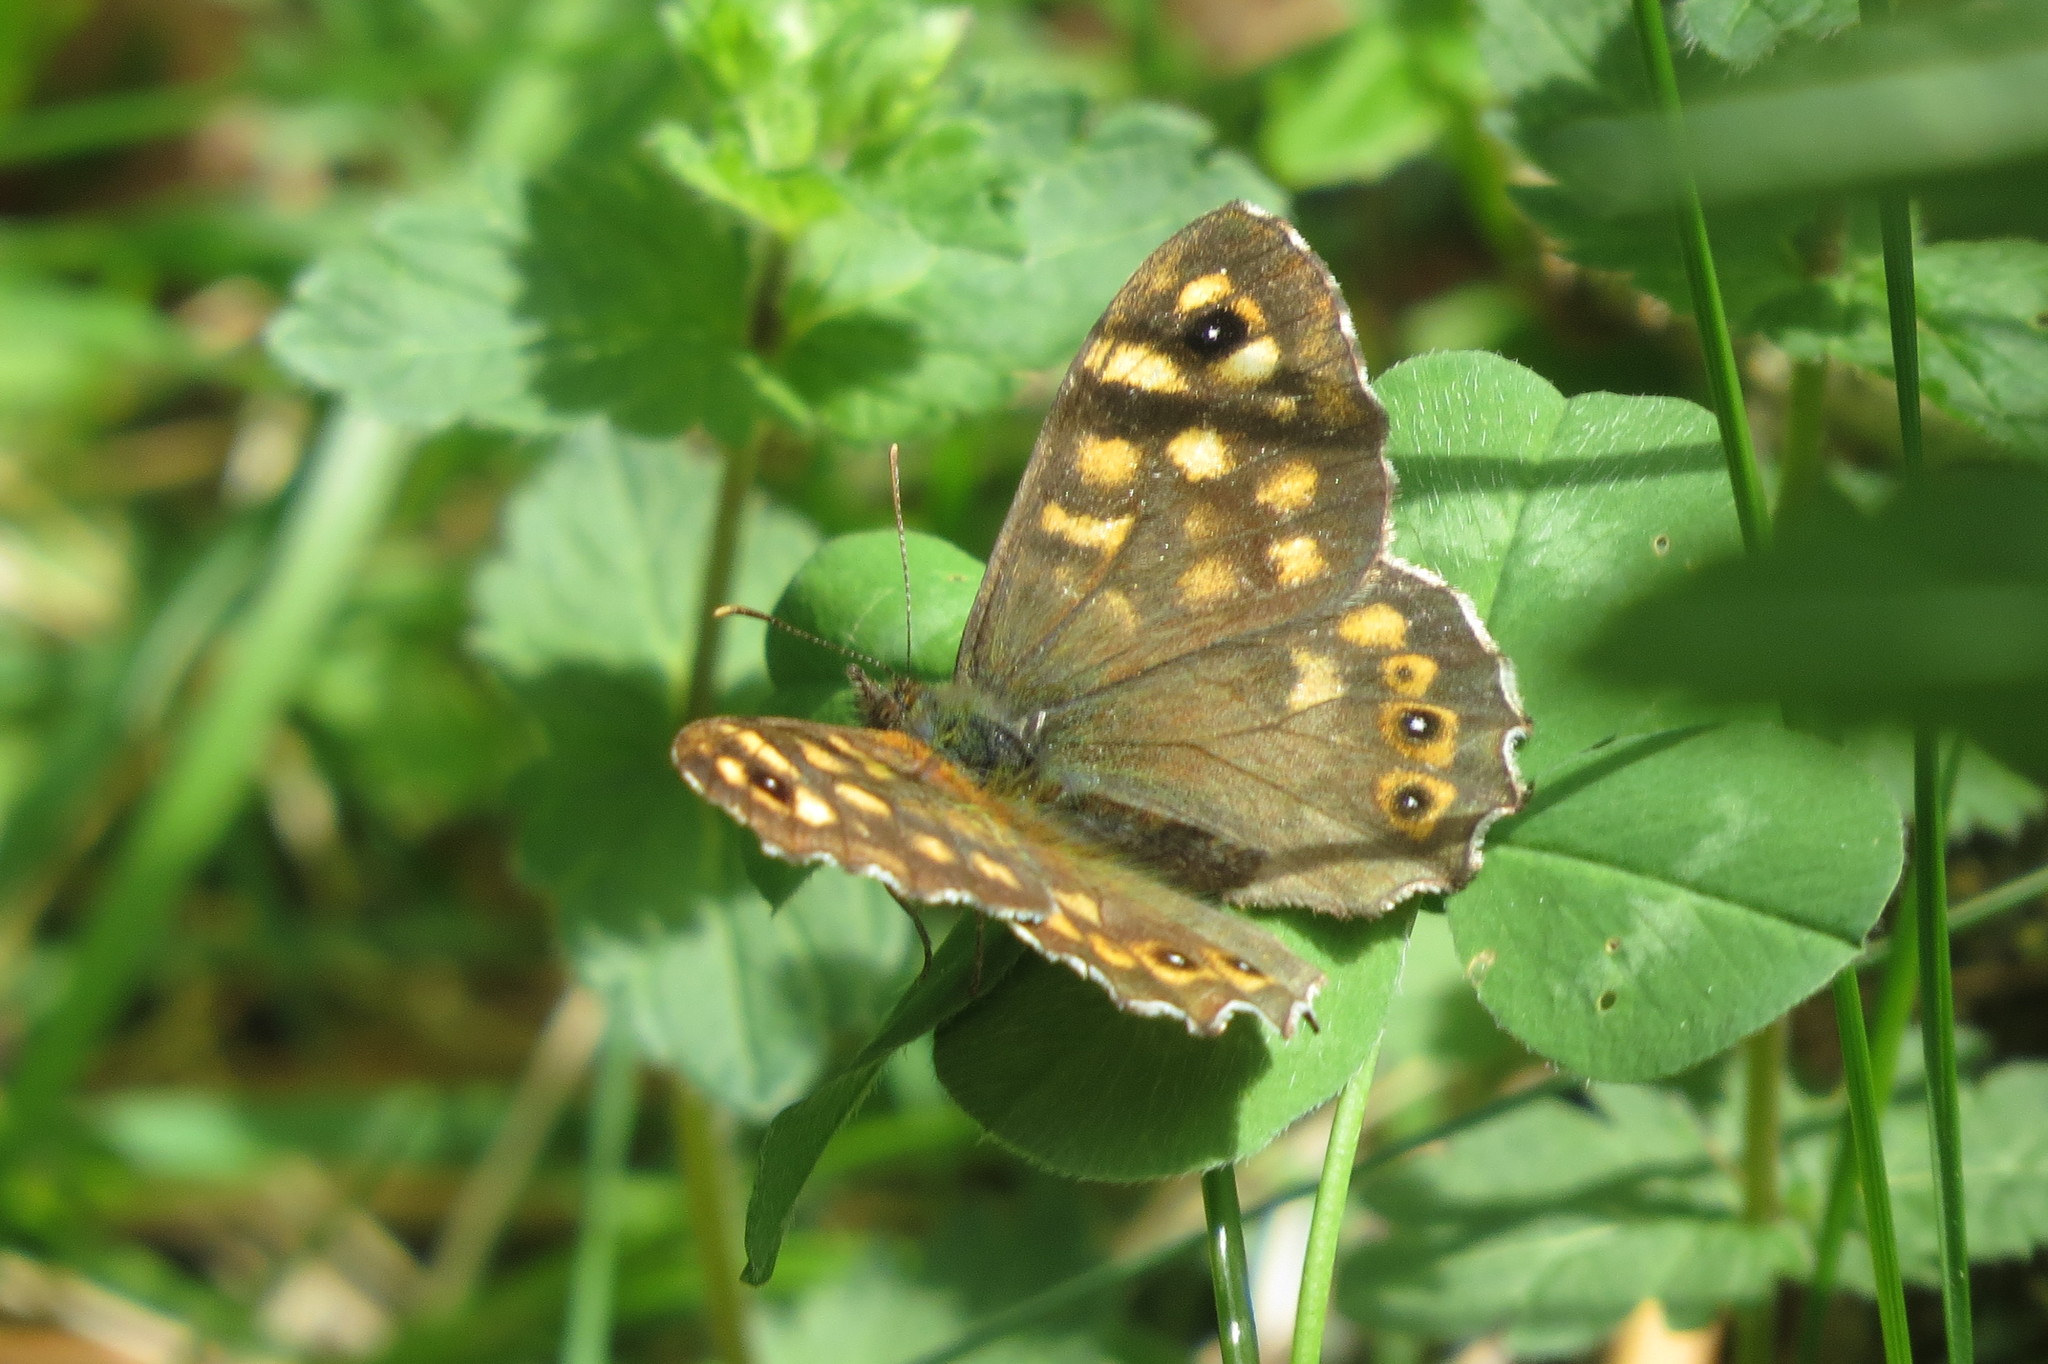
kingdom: Animalia
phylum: Arthropoda
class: Insecta
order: Lepidoptera
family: Nymphalidae
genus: Pararge
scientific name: Pararge aegeria
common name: Speckled wood
